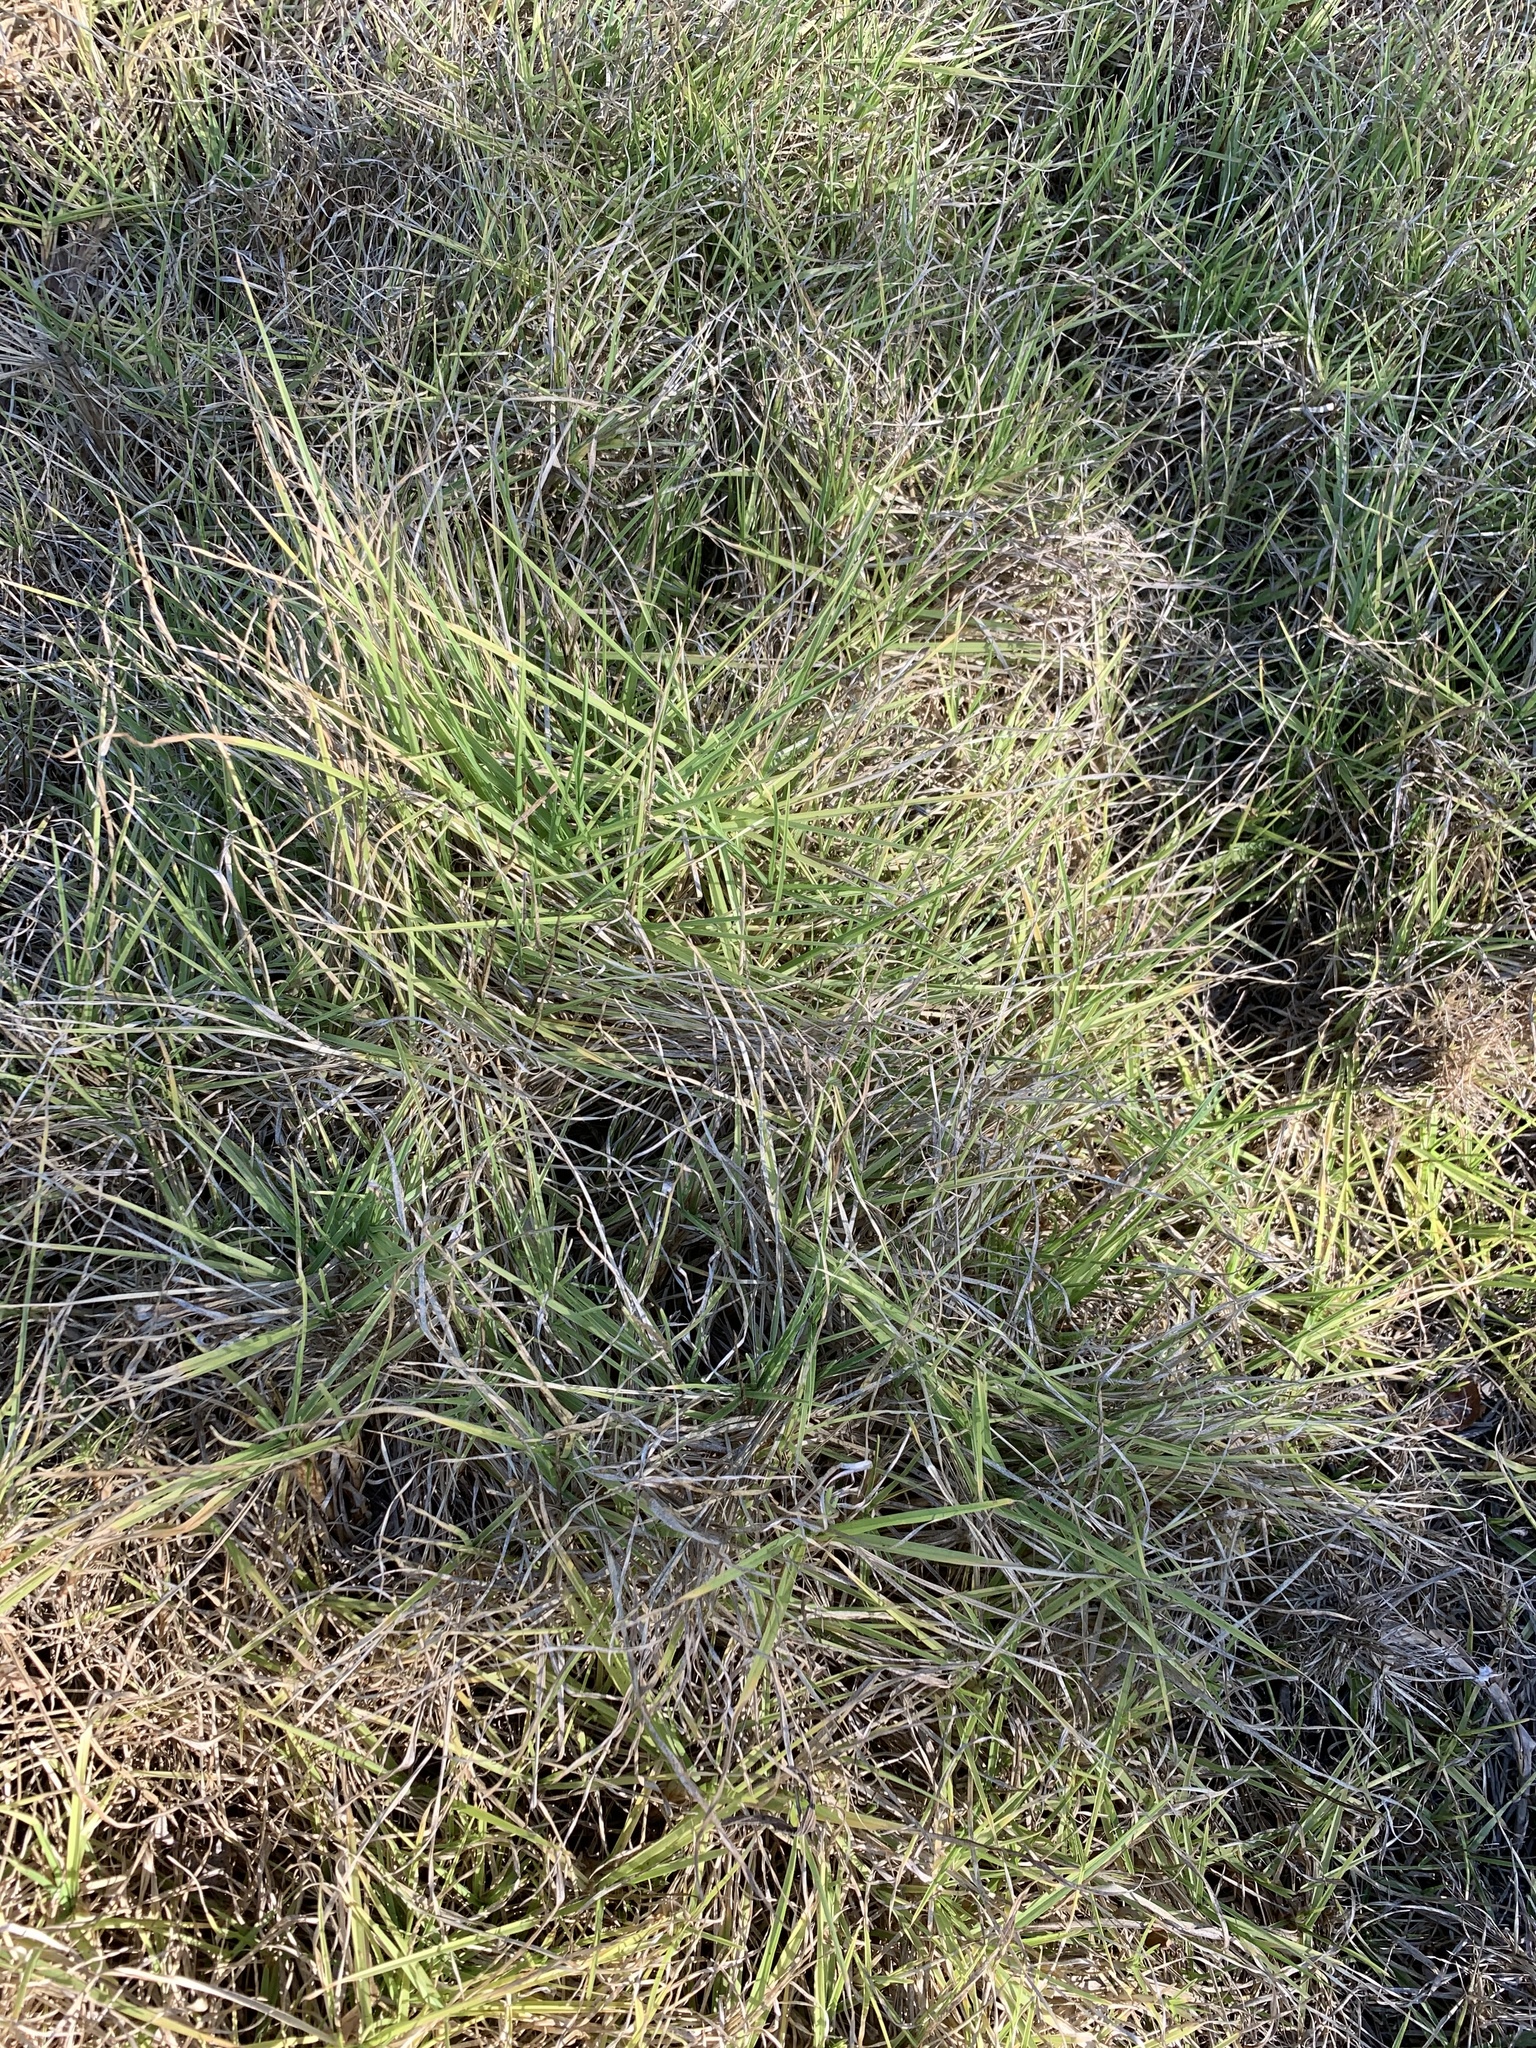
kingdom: Plantae
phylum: Tracheophyta
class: Liliopsida
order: Poales
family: Poaceae
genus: Cenchrus
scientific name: Cenchrus clandestinus
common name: Kikuyugrass
